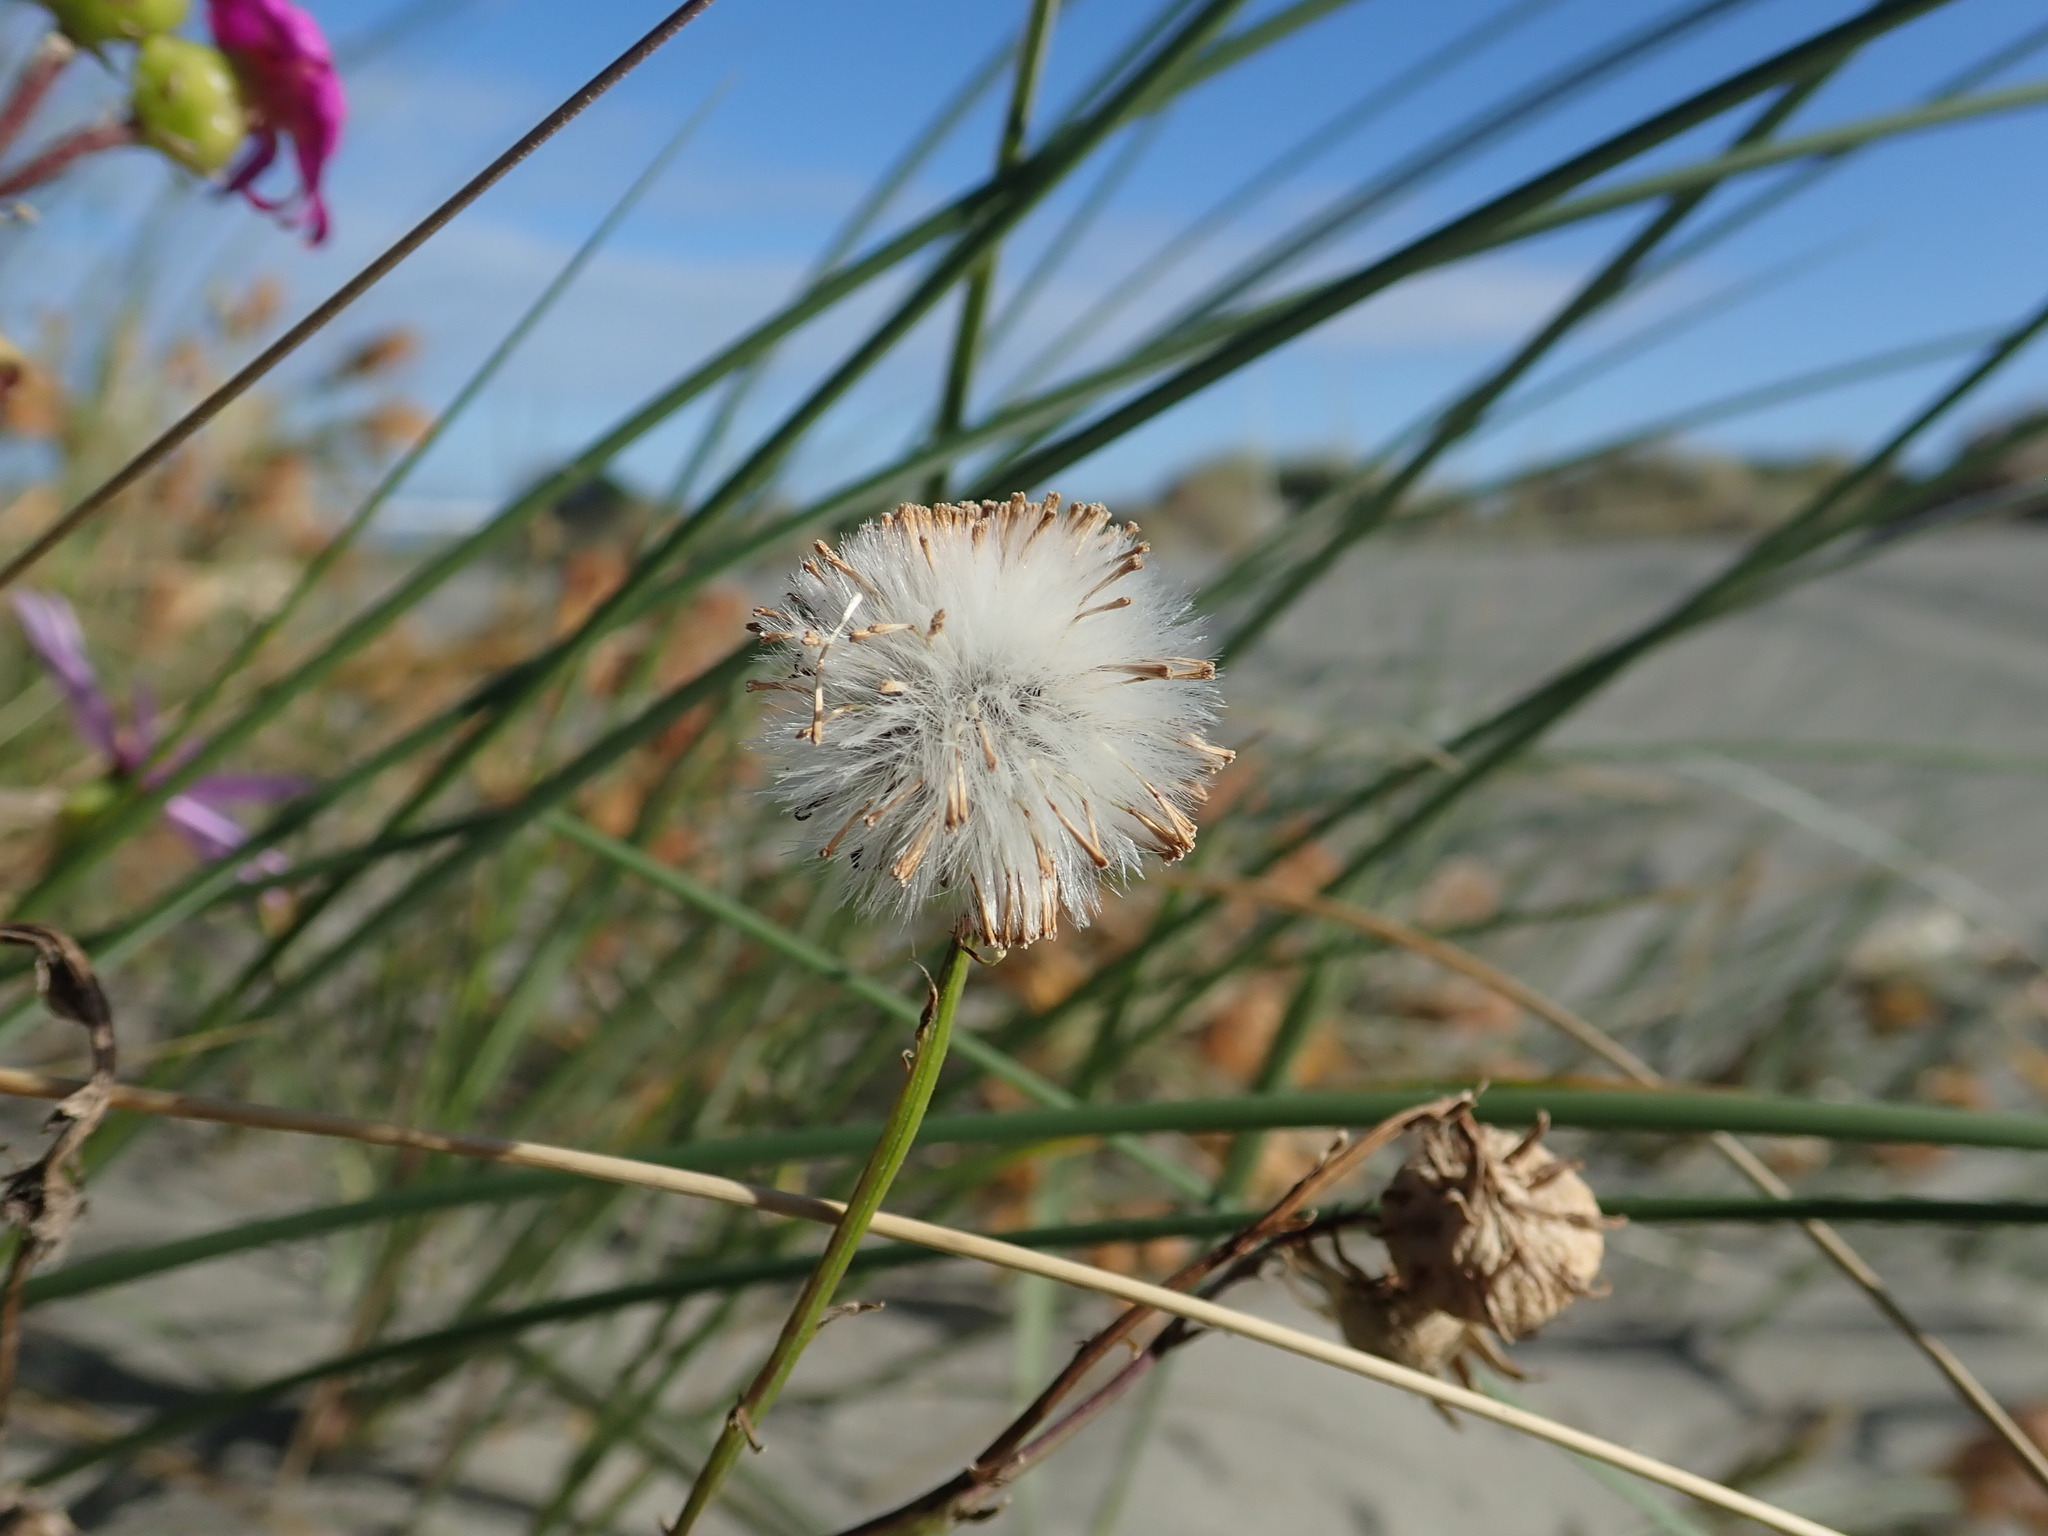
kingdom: Plantae
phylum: Tracheophyta
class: Magnoliopsida
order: Asterales
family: Asteraceae
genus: Senecio
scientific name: Senecio elegans
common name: Purple groundsel
